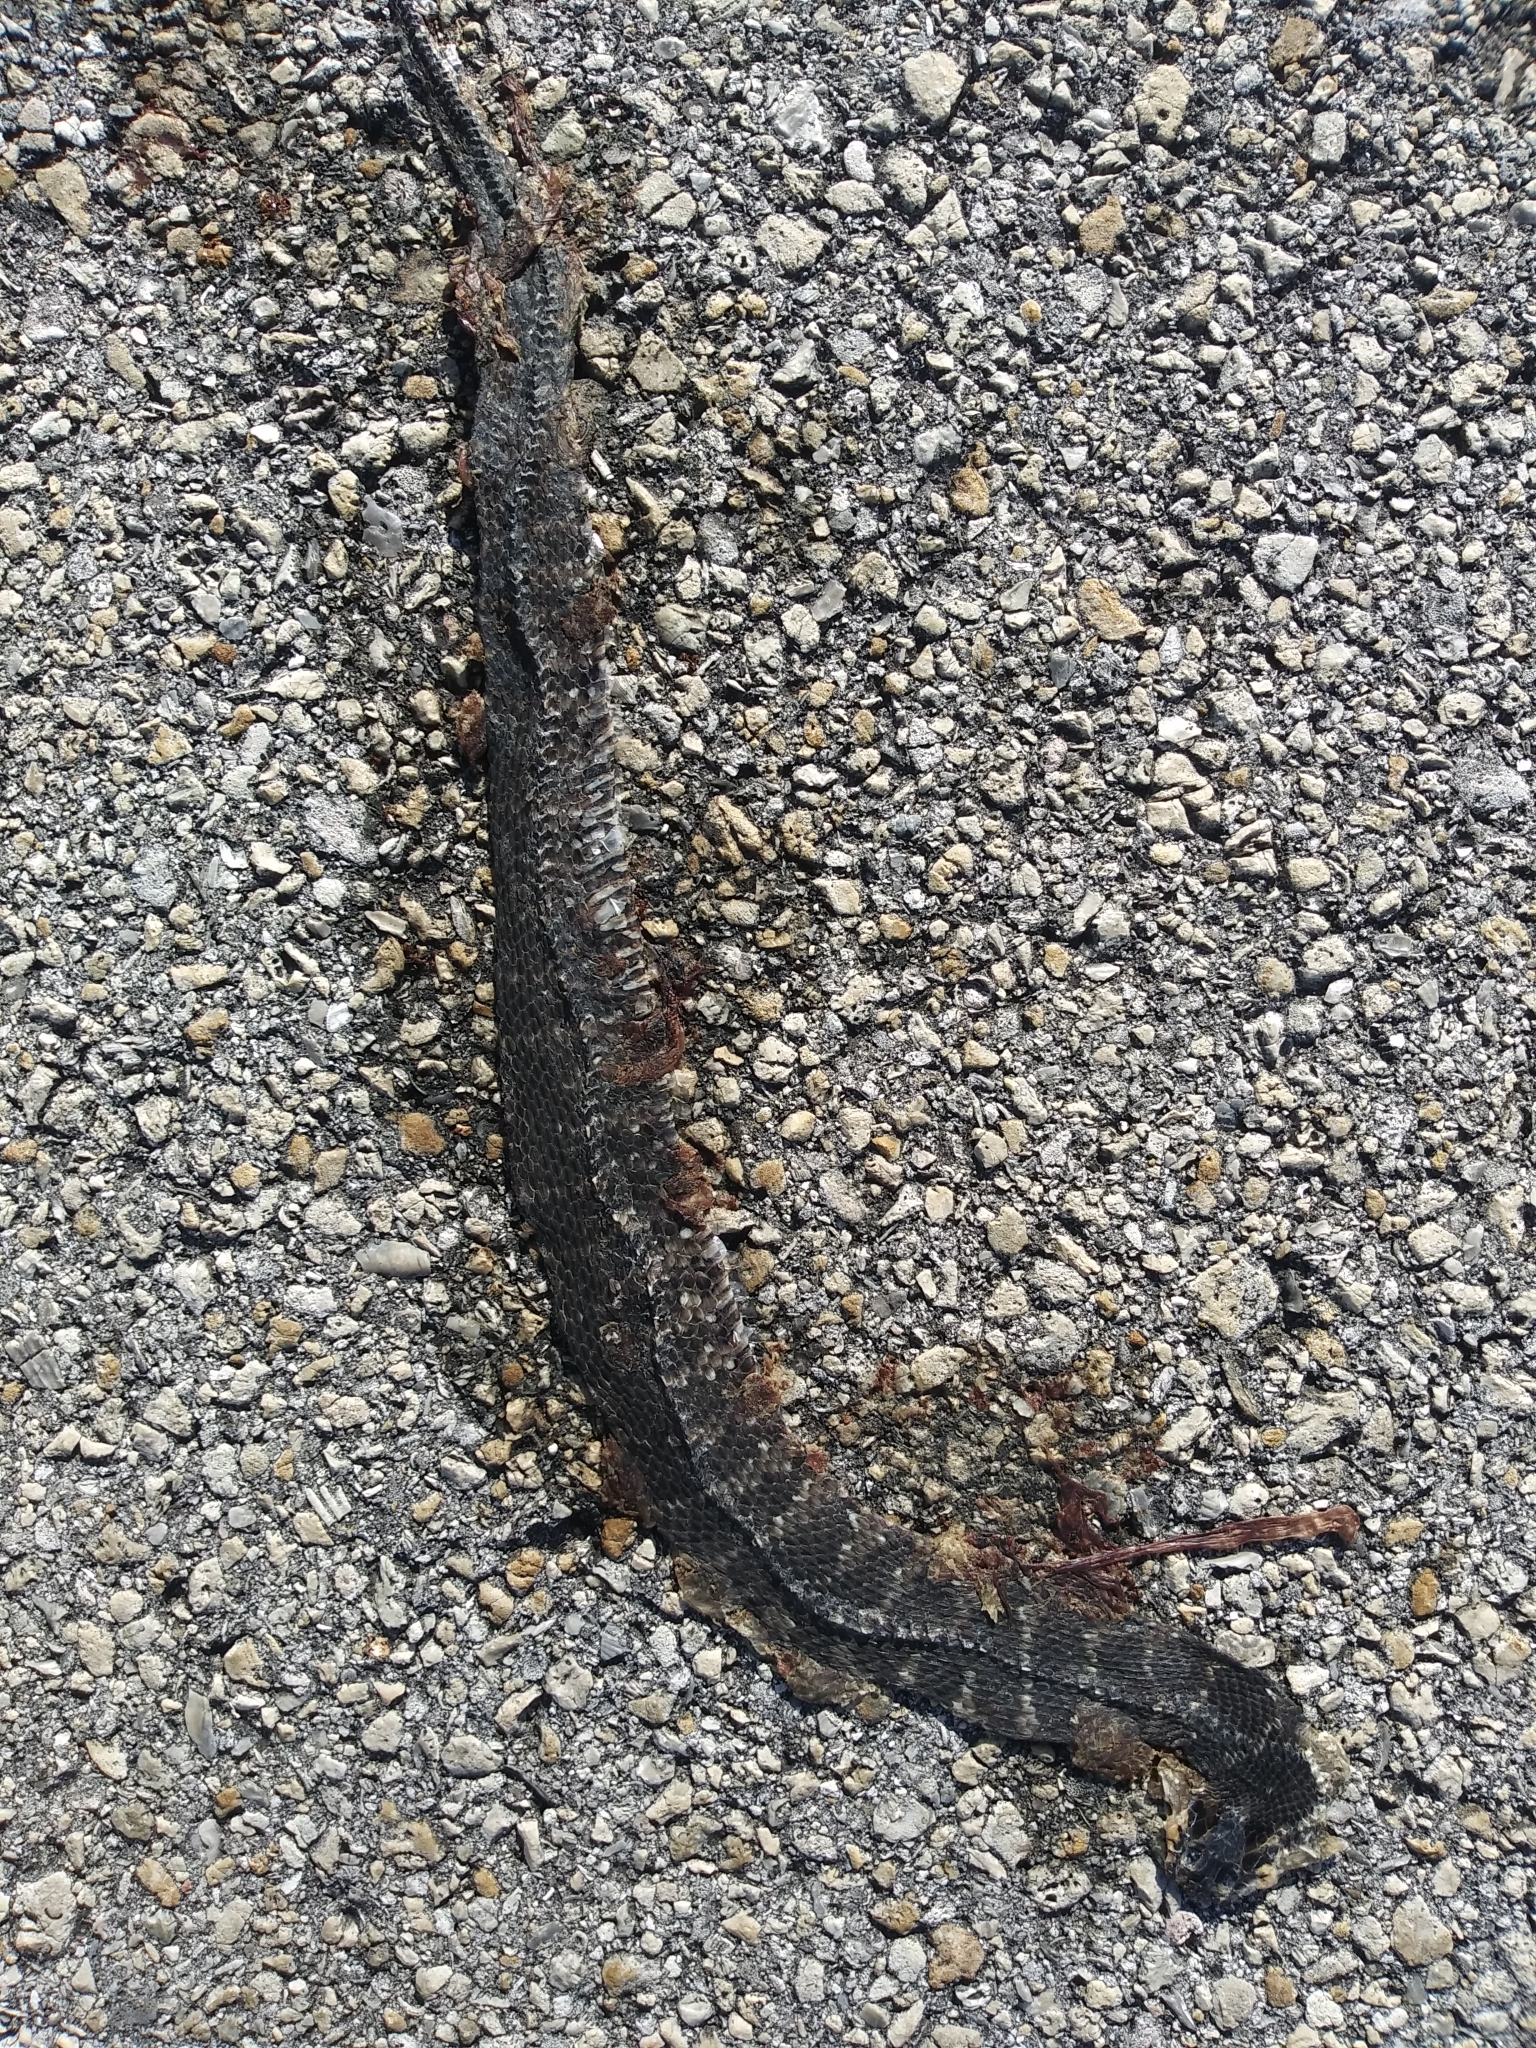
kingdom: Animalia
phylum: Chordata
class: Squamata
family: Colubridae
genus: Nerodia
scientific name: Nerodia fasciata
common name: Southern water snake
